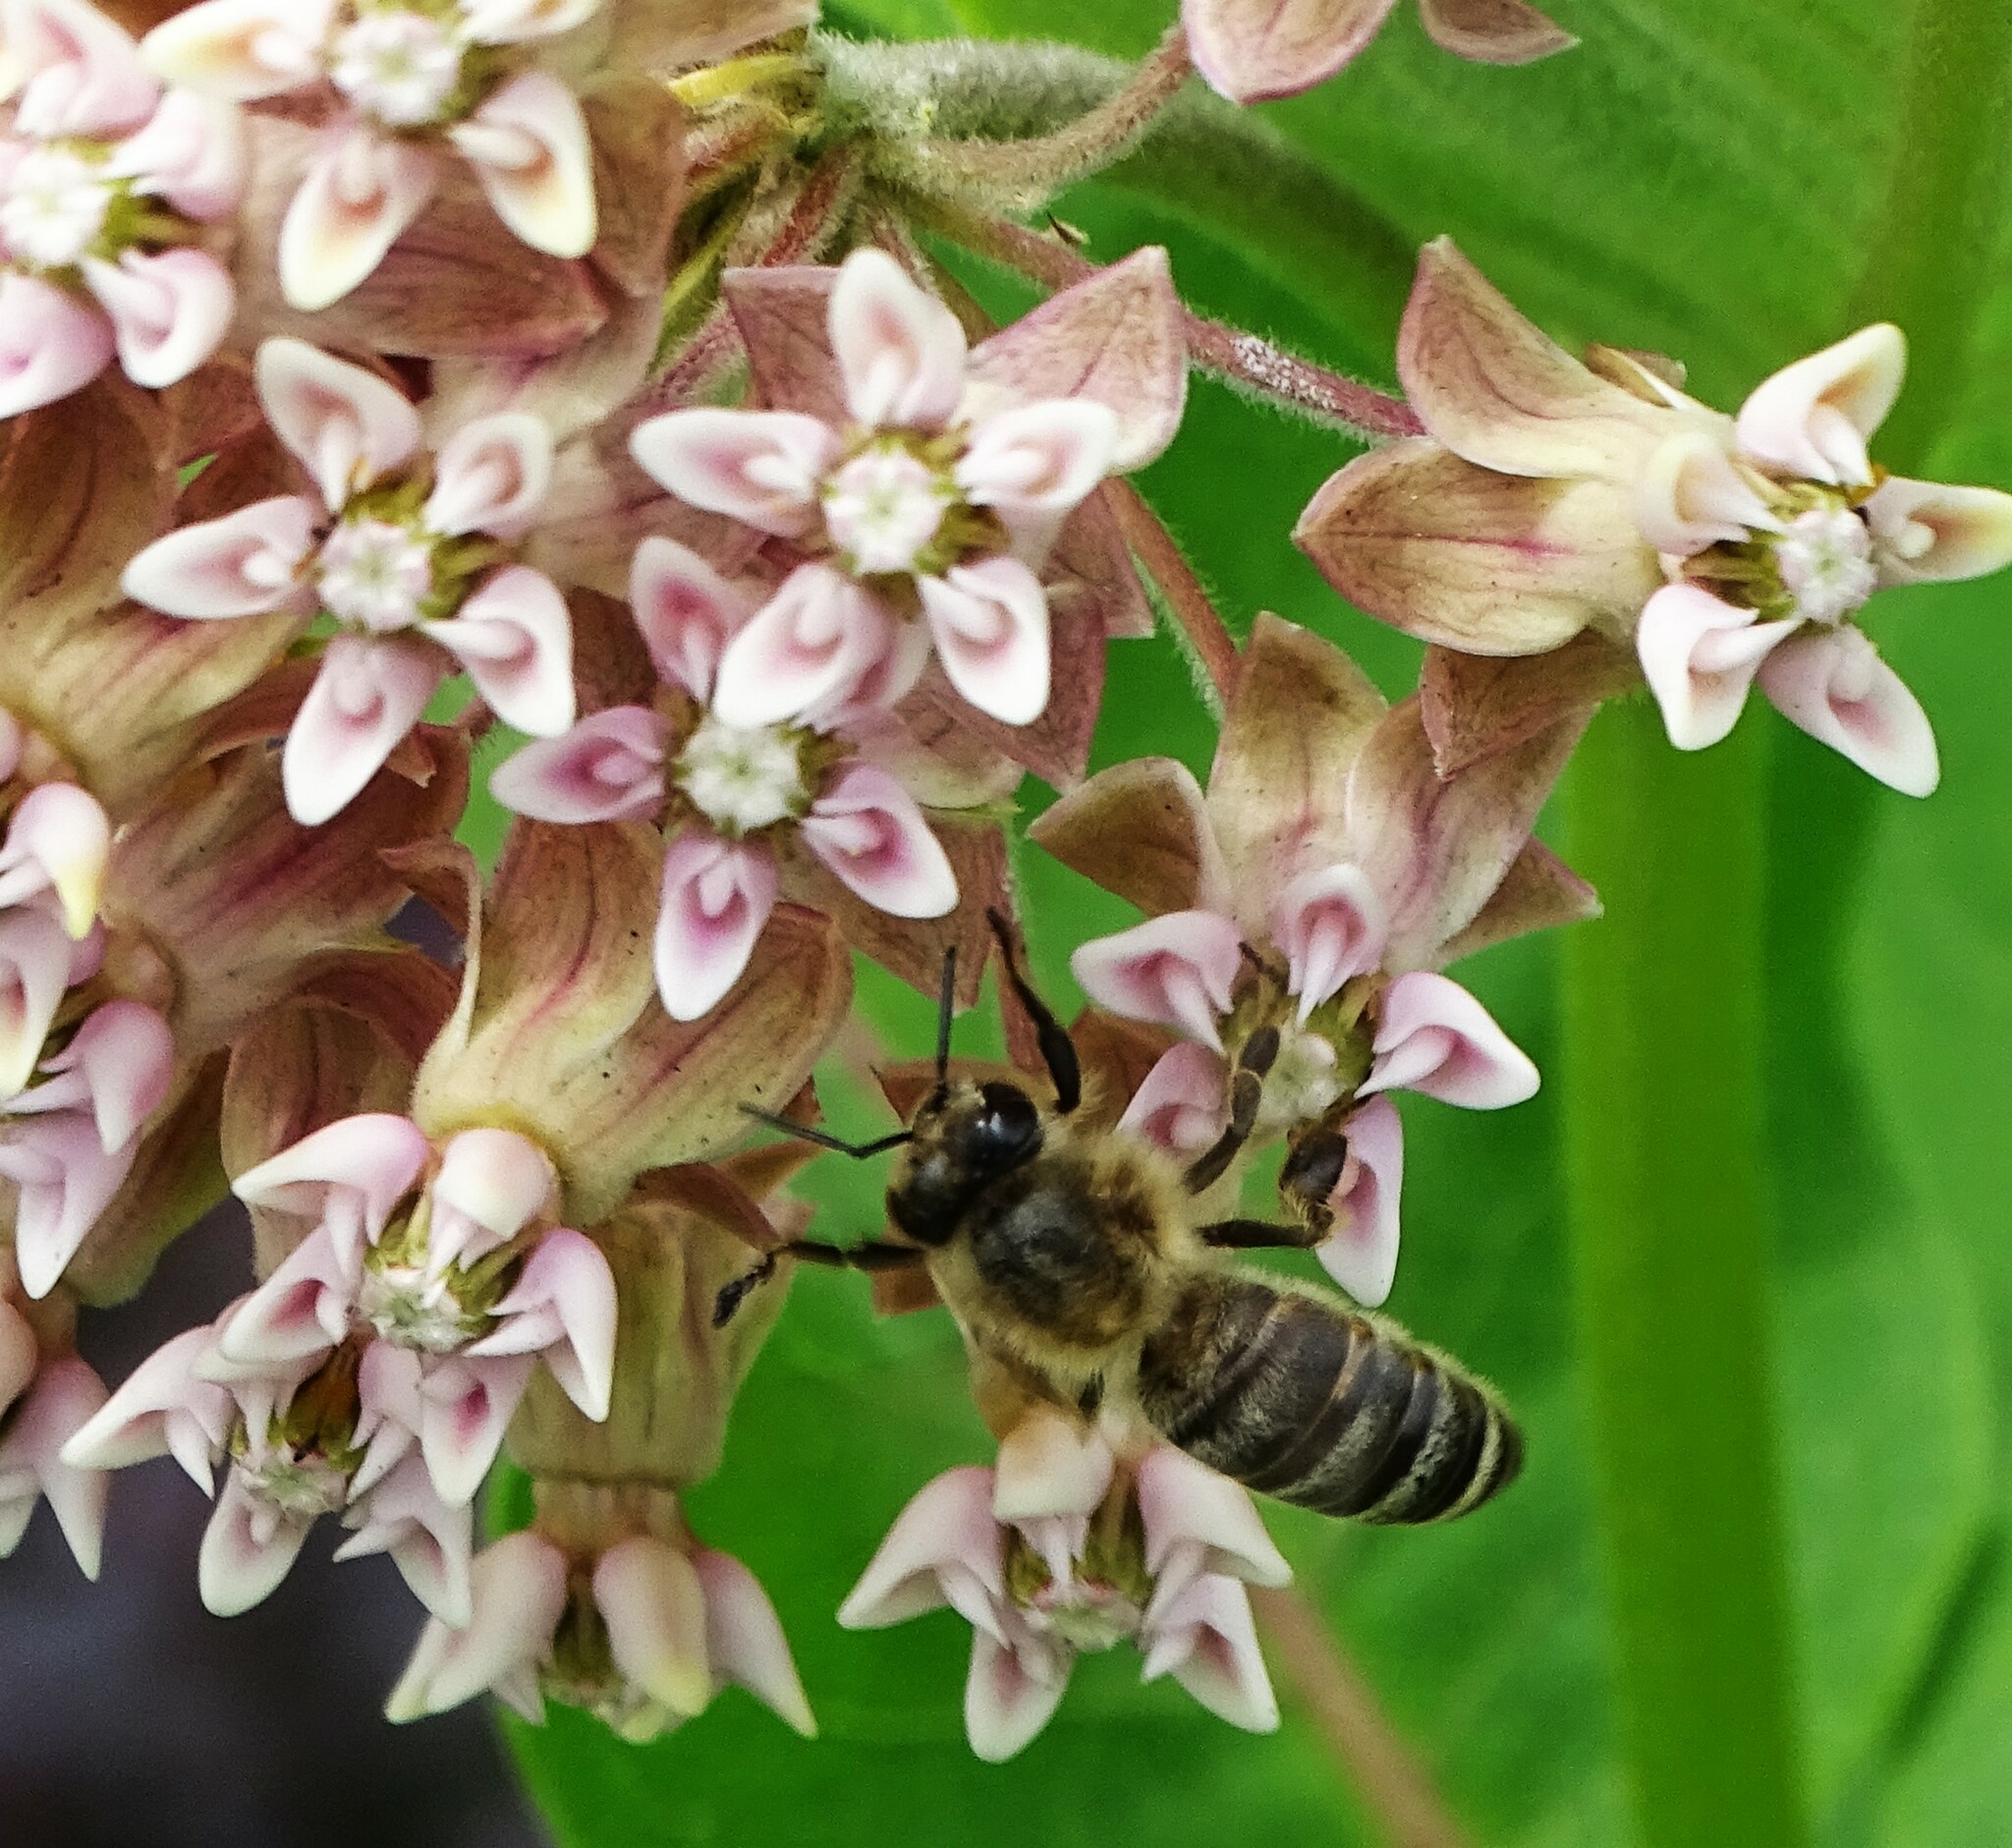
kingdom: Animalia
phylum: Arthropoda
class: Insecta
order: Hymenoptera
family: Apidae
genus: Apis
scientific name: Apis mellifera
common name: Honey bee
